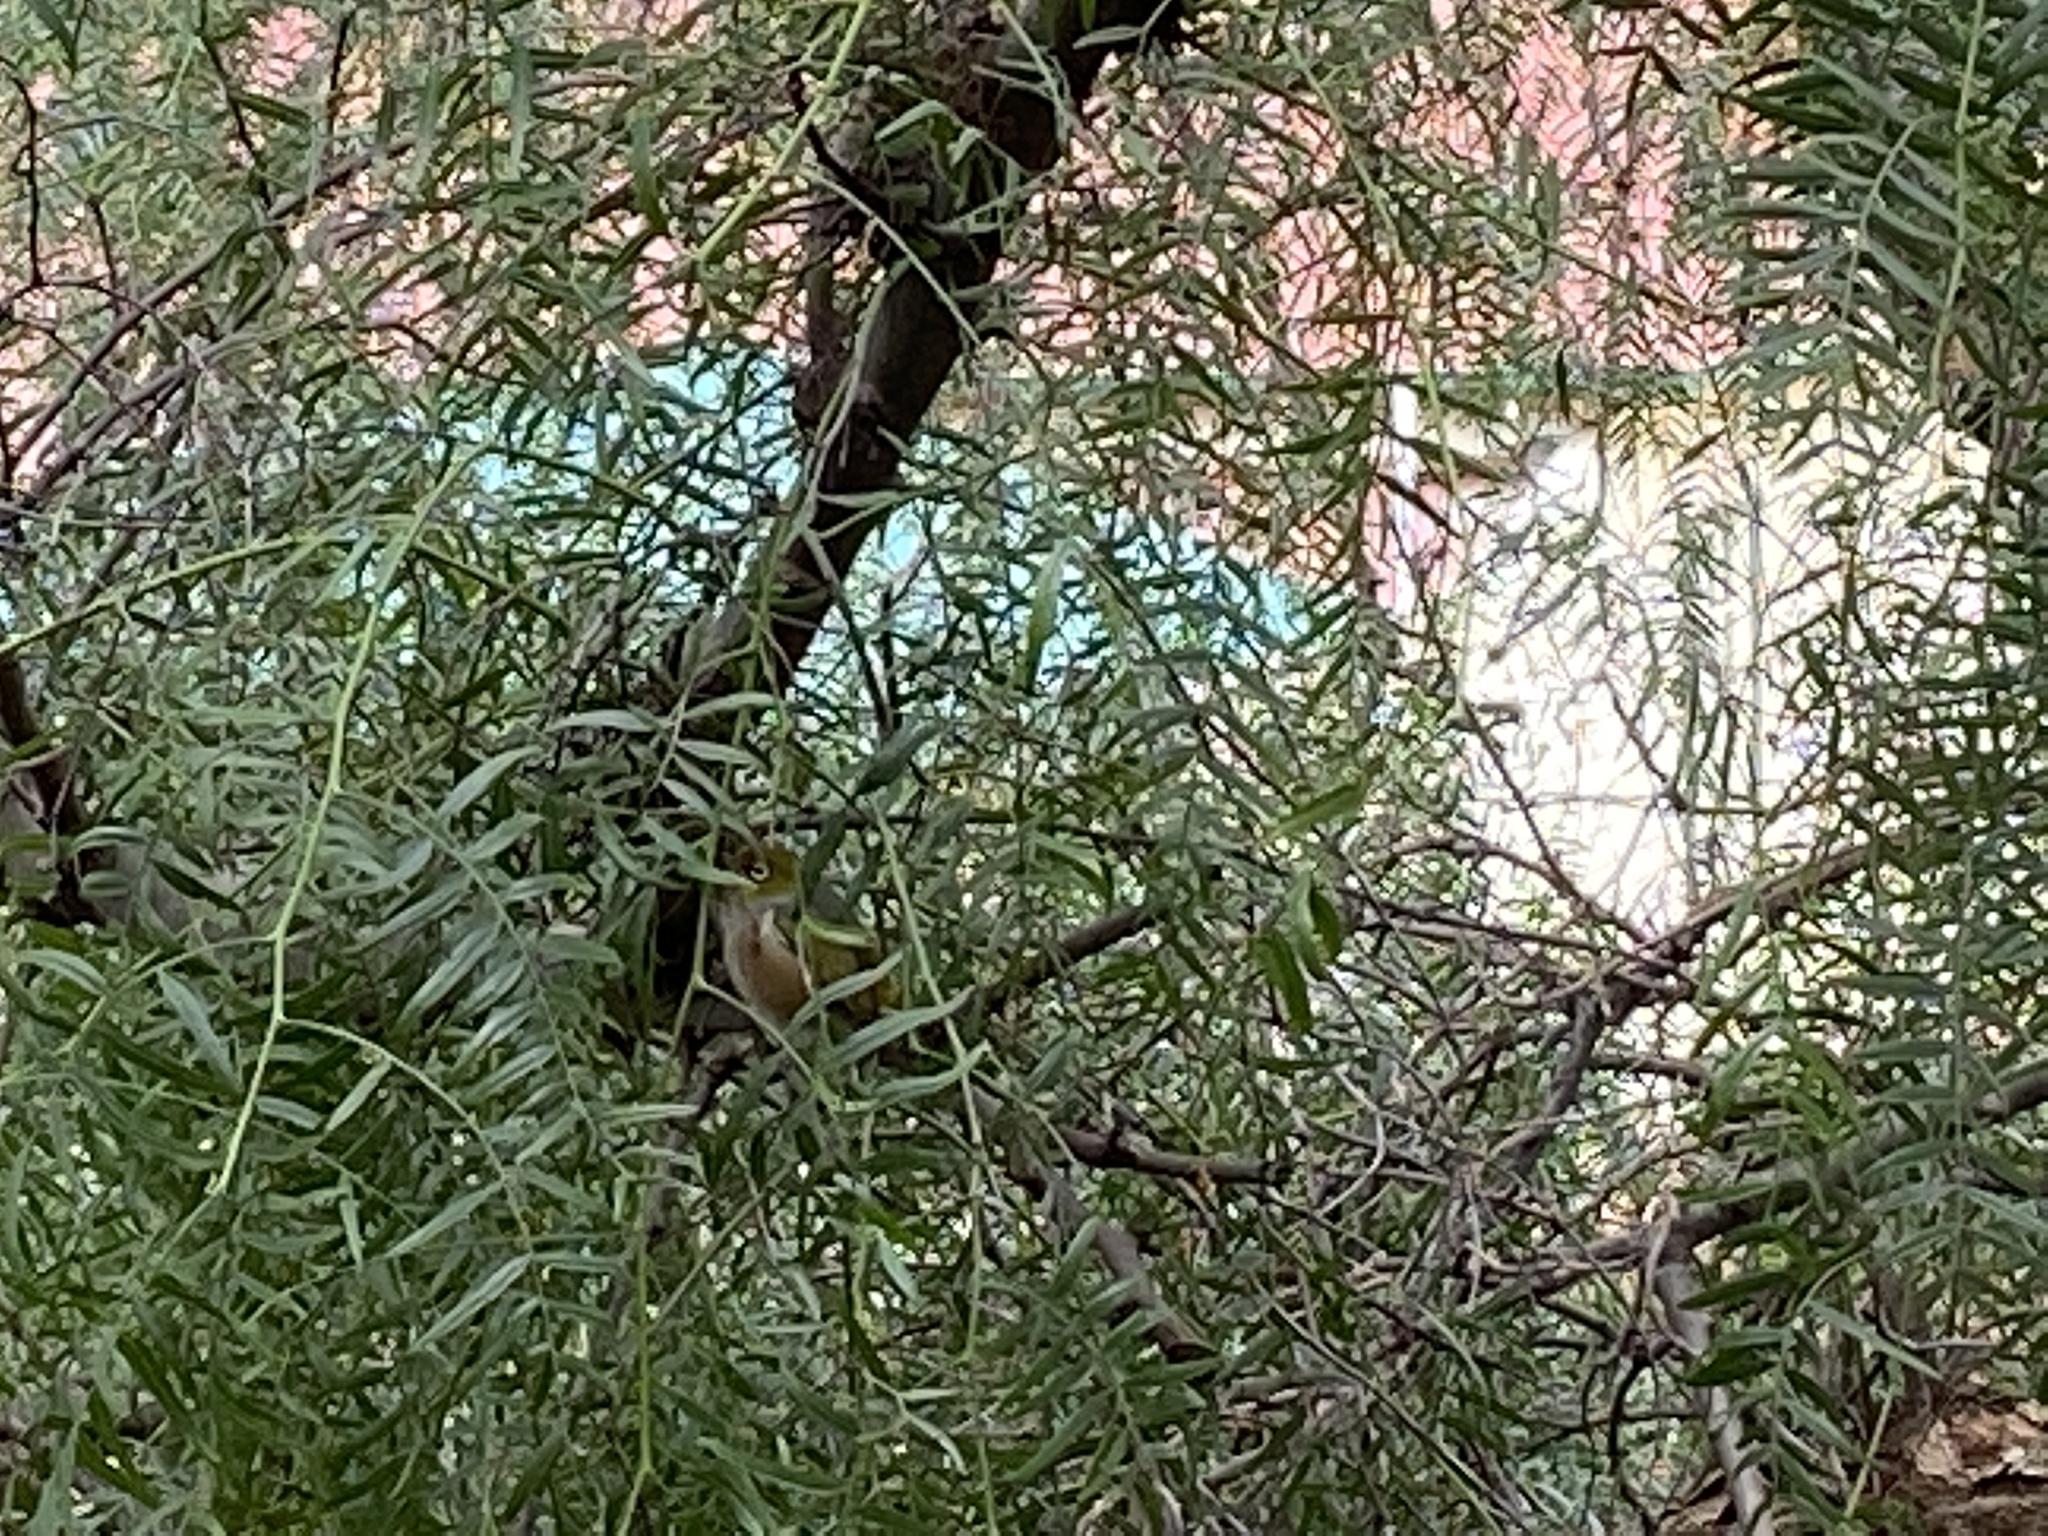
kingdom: Animalia
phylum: Chordata
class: Aves
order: Passeriformes
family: Zosteropidae
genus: Zosterops
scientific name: Zosterops lateralis
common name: Silvereye
